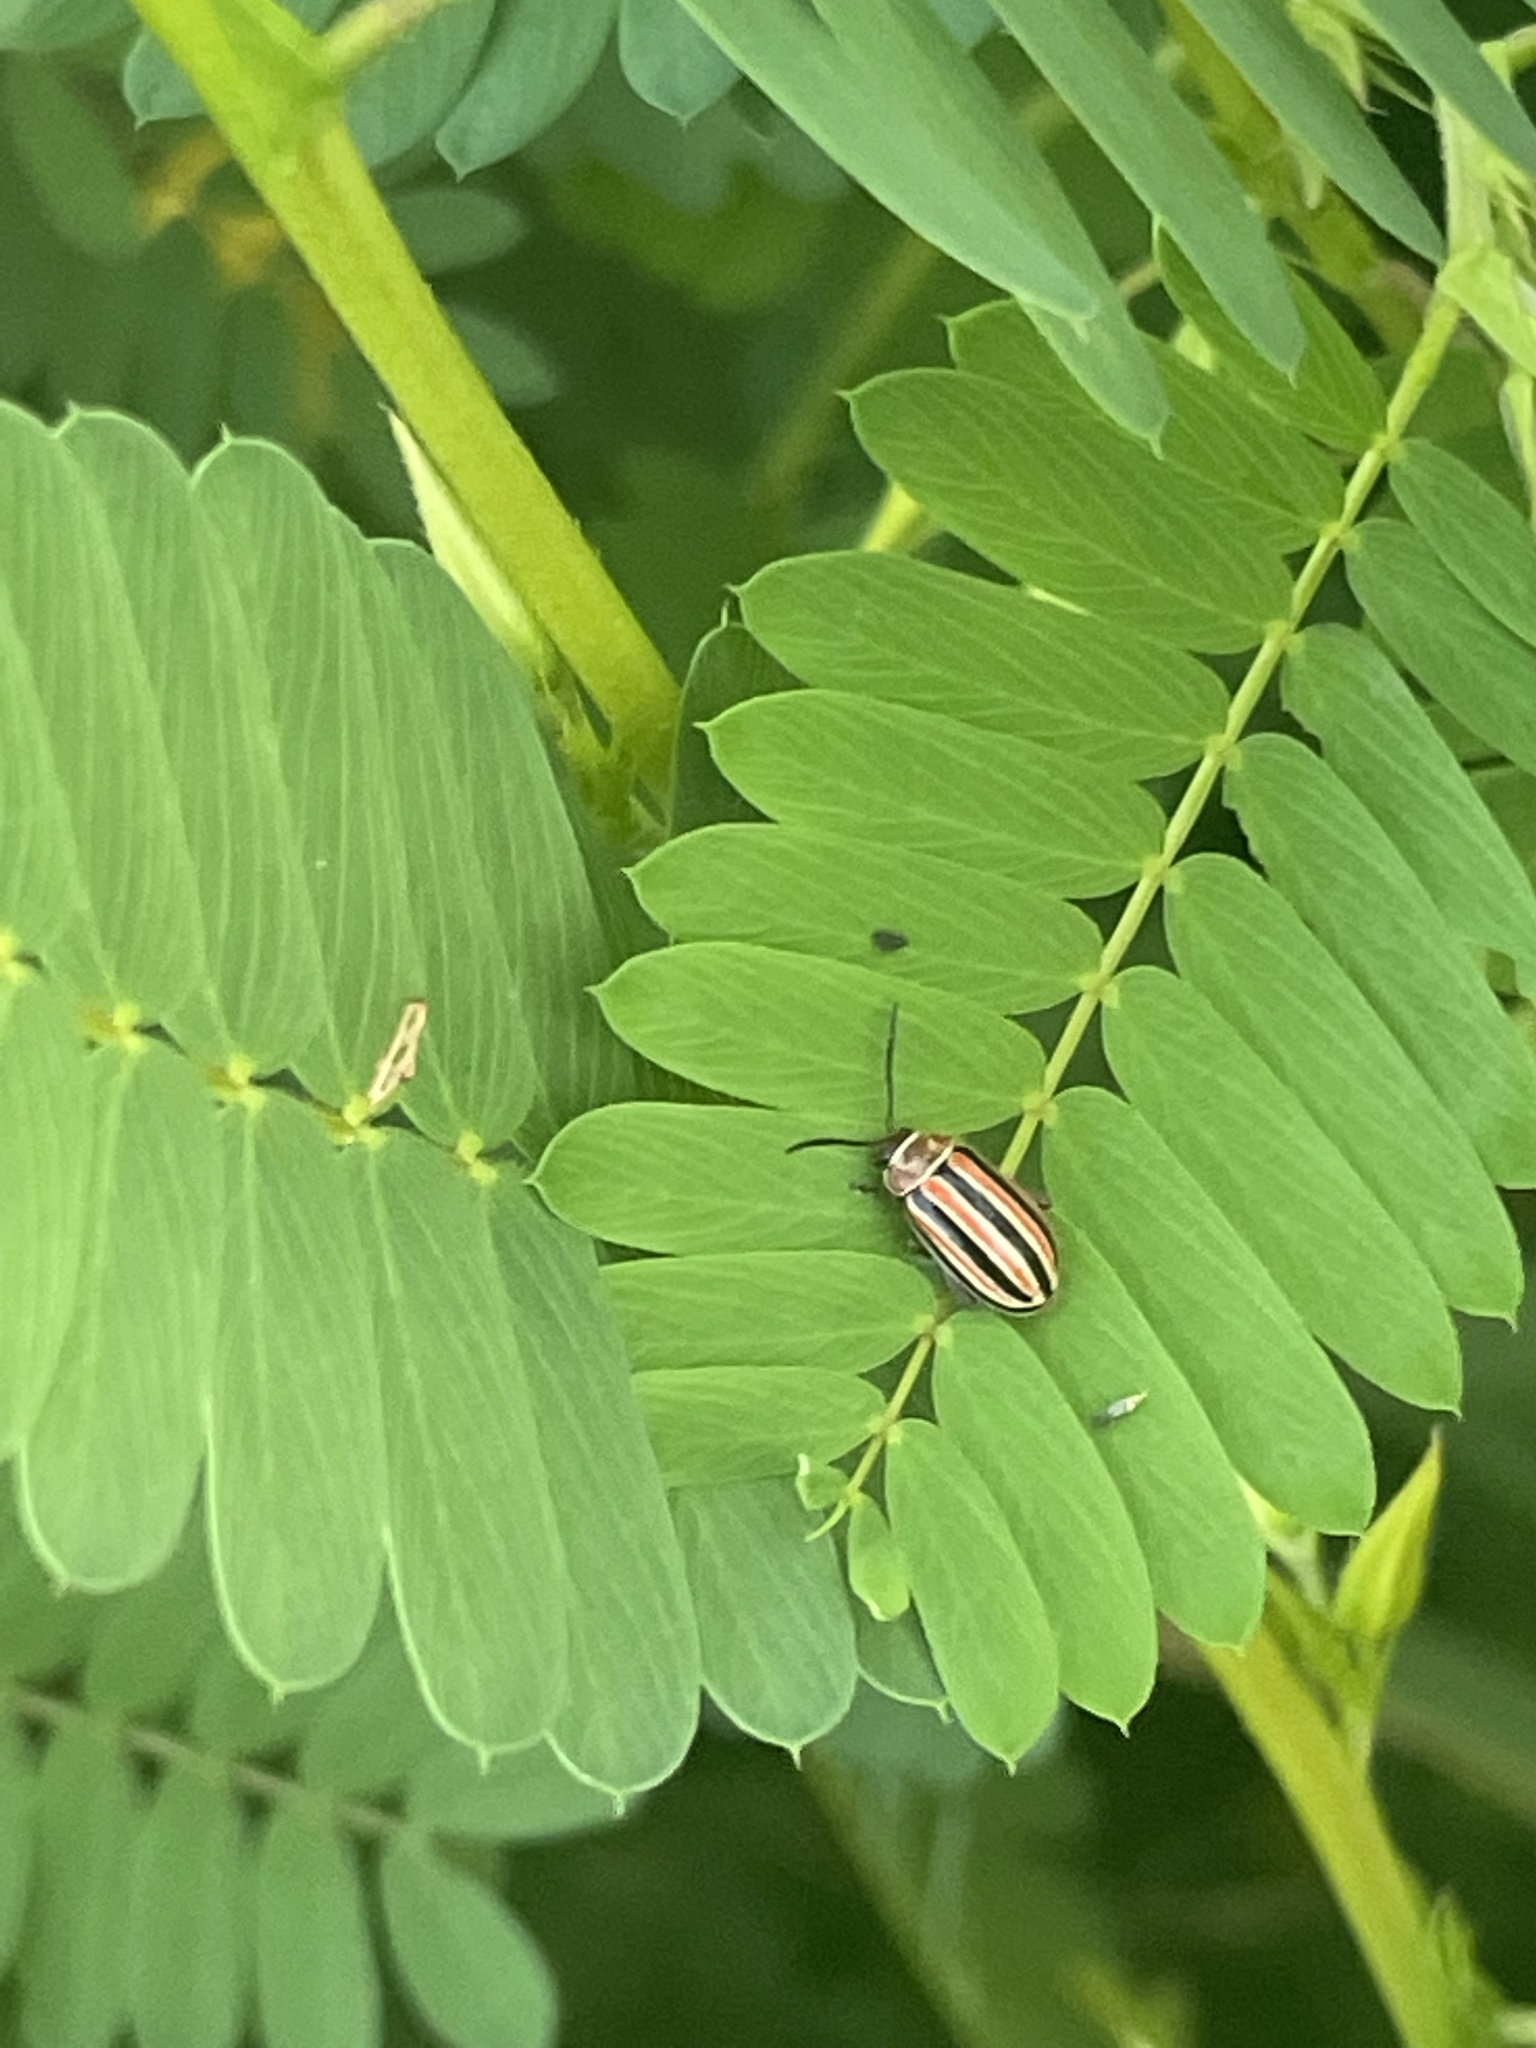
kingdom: Animalia
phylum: Arthropoda
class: Insecta
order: Coleoptera
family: Chrysomelidae
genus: Disonycha
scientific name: Disonycha admirabila
